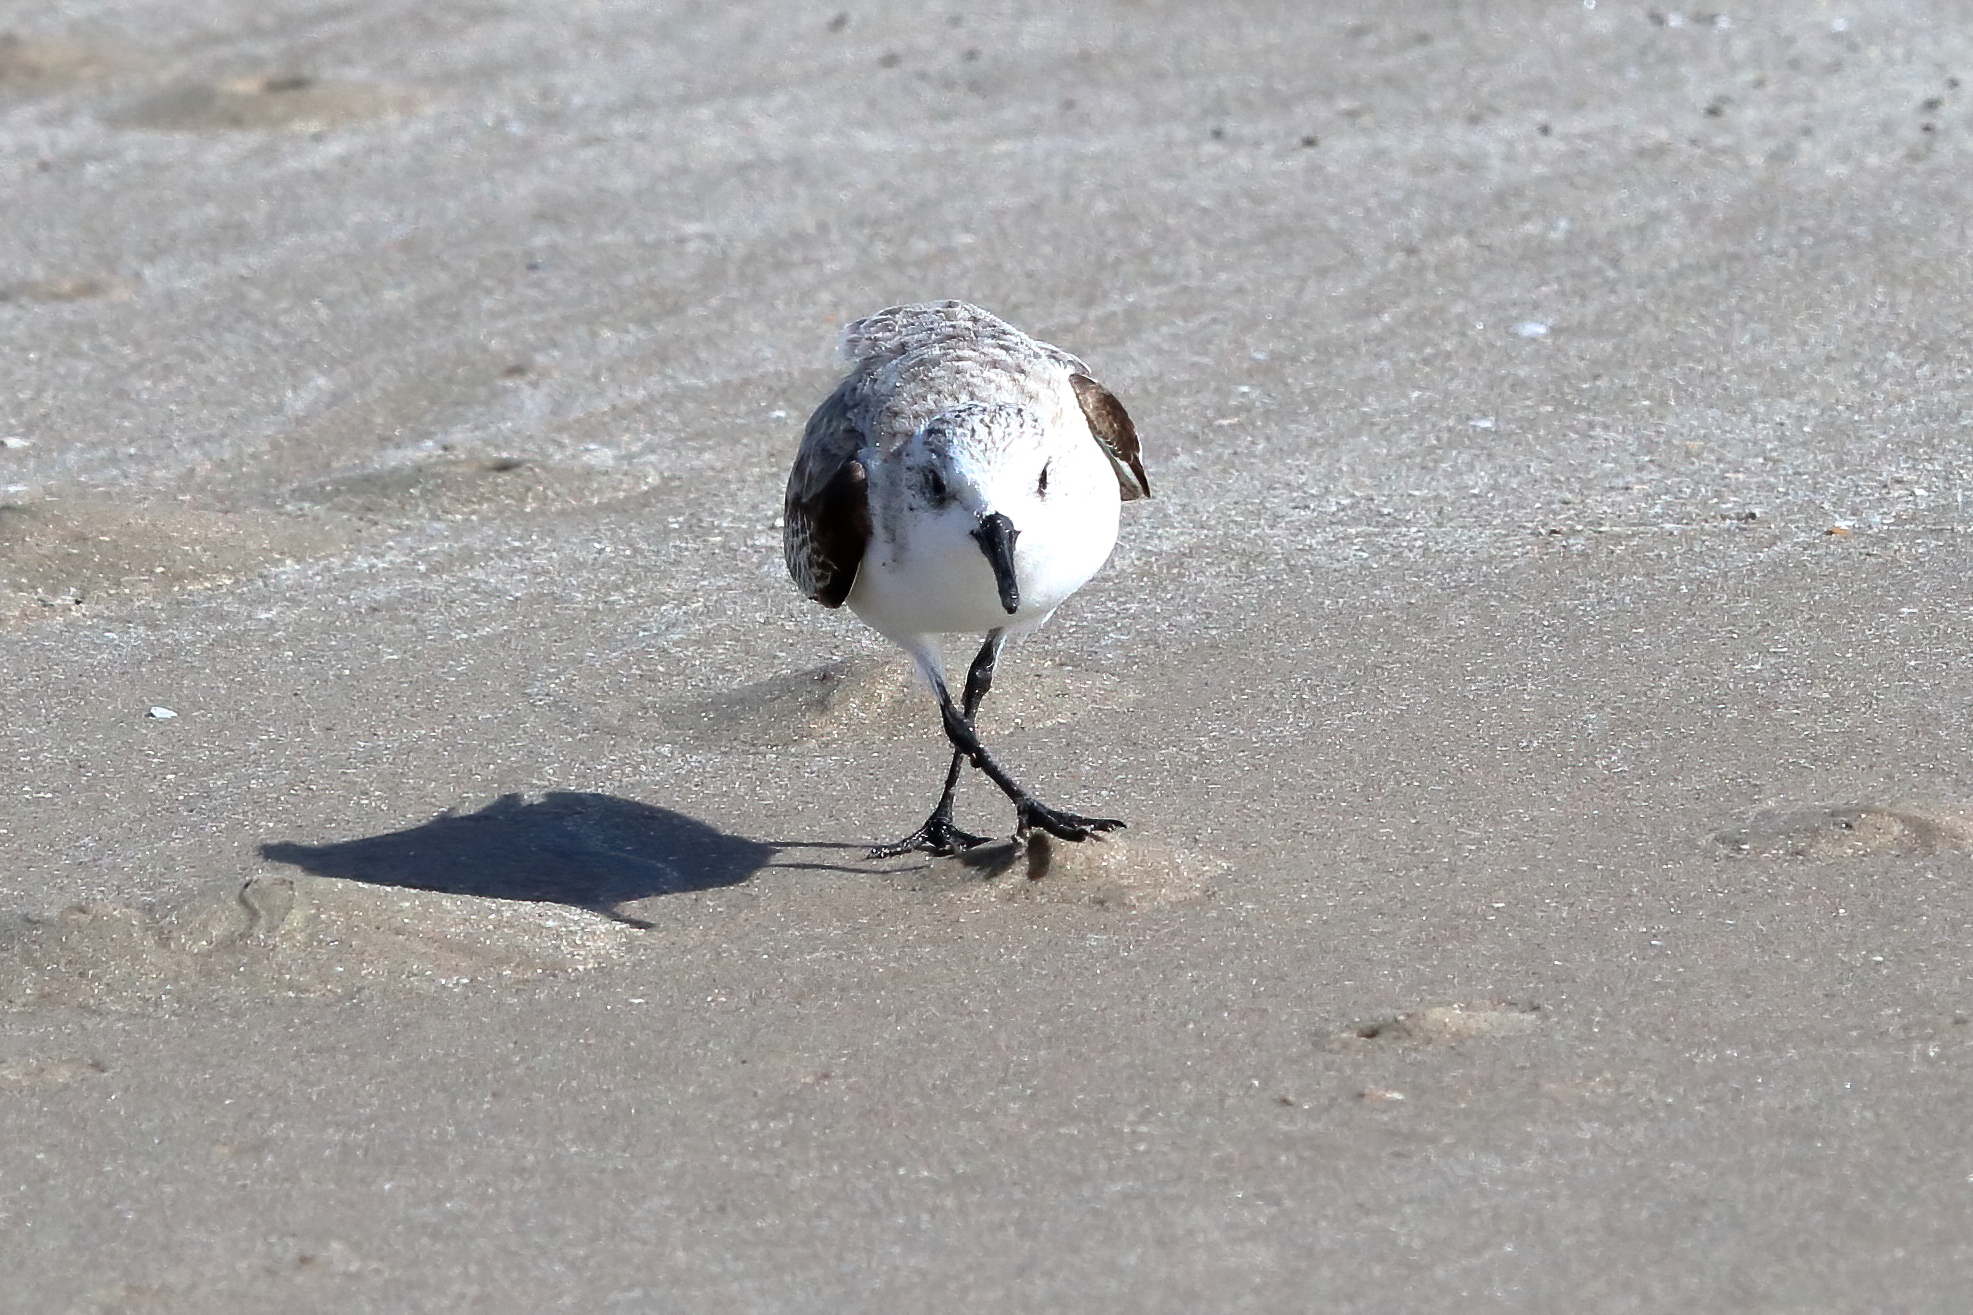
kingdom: Animalia
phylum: Chordata
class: Aves
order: Charadriiformes
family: Scolopacidae
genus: Calidris
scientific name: Calidris alba
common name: Sanderling
